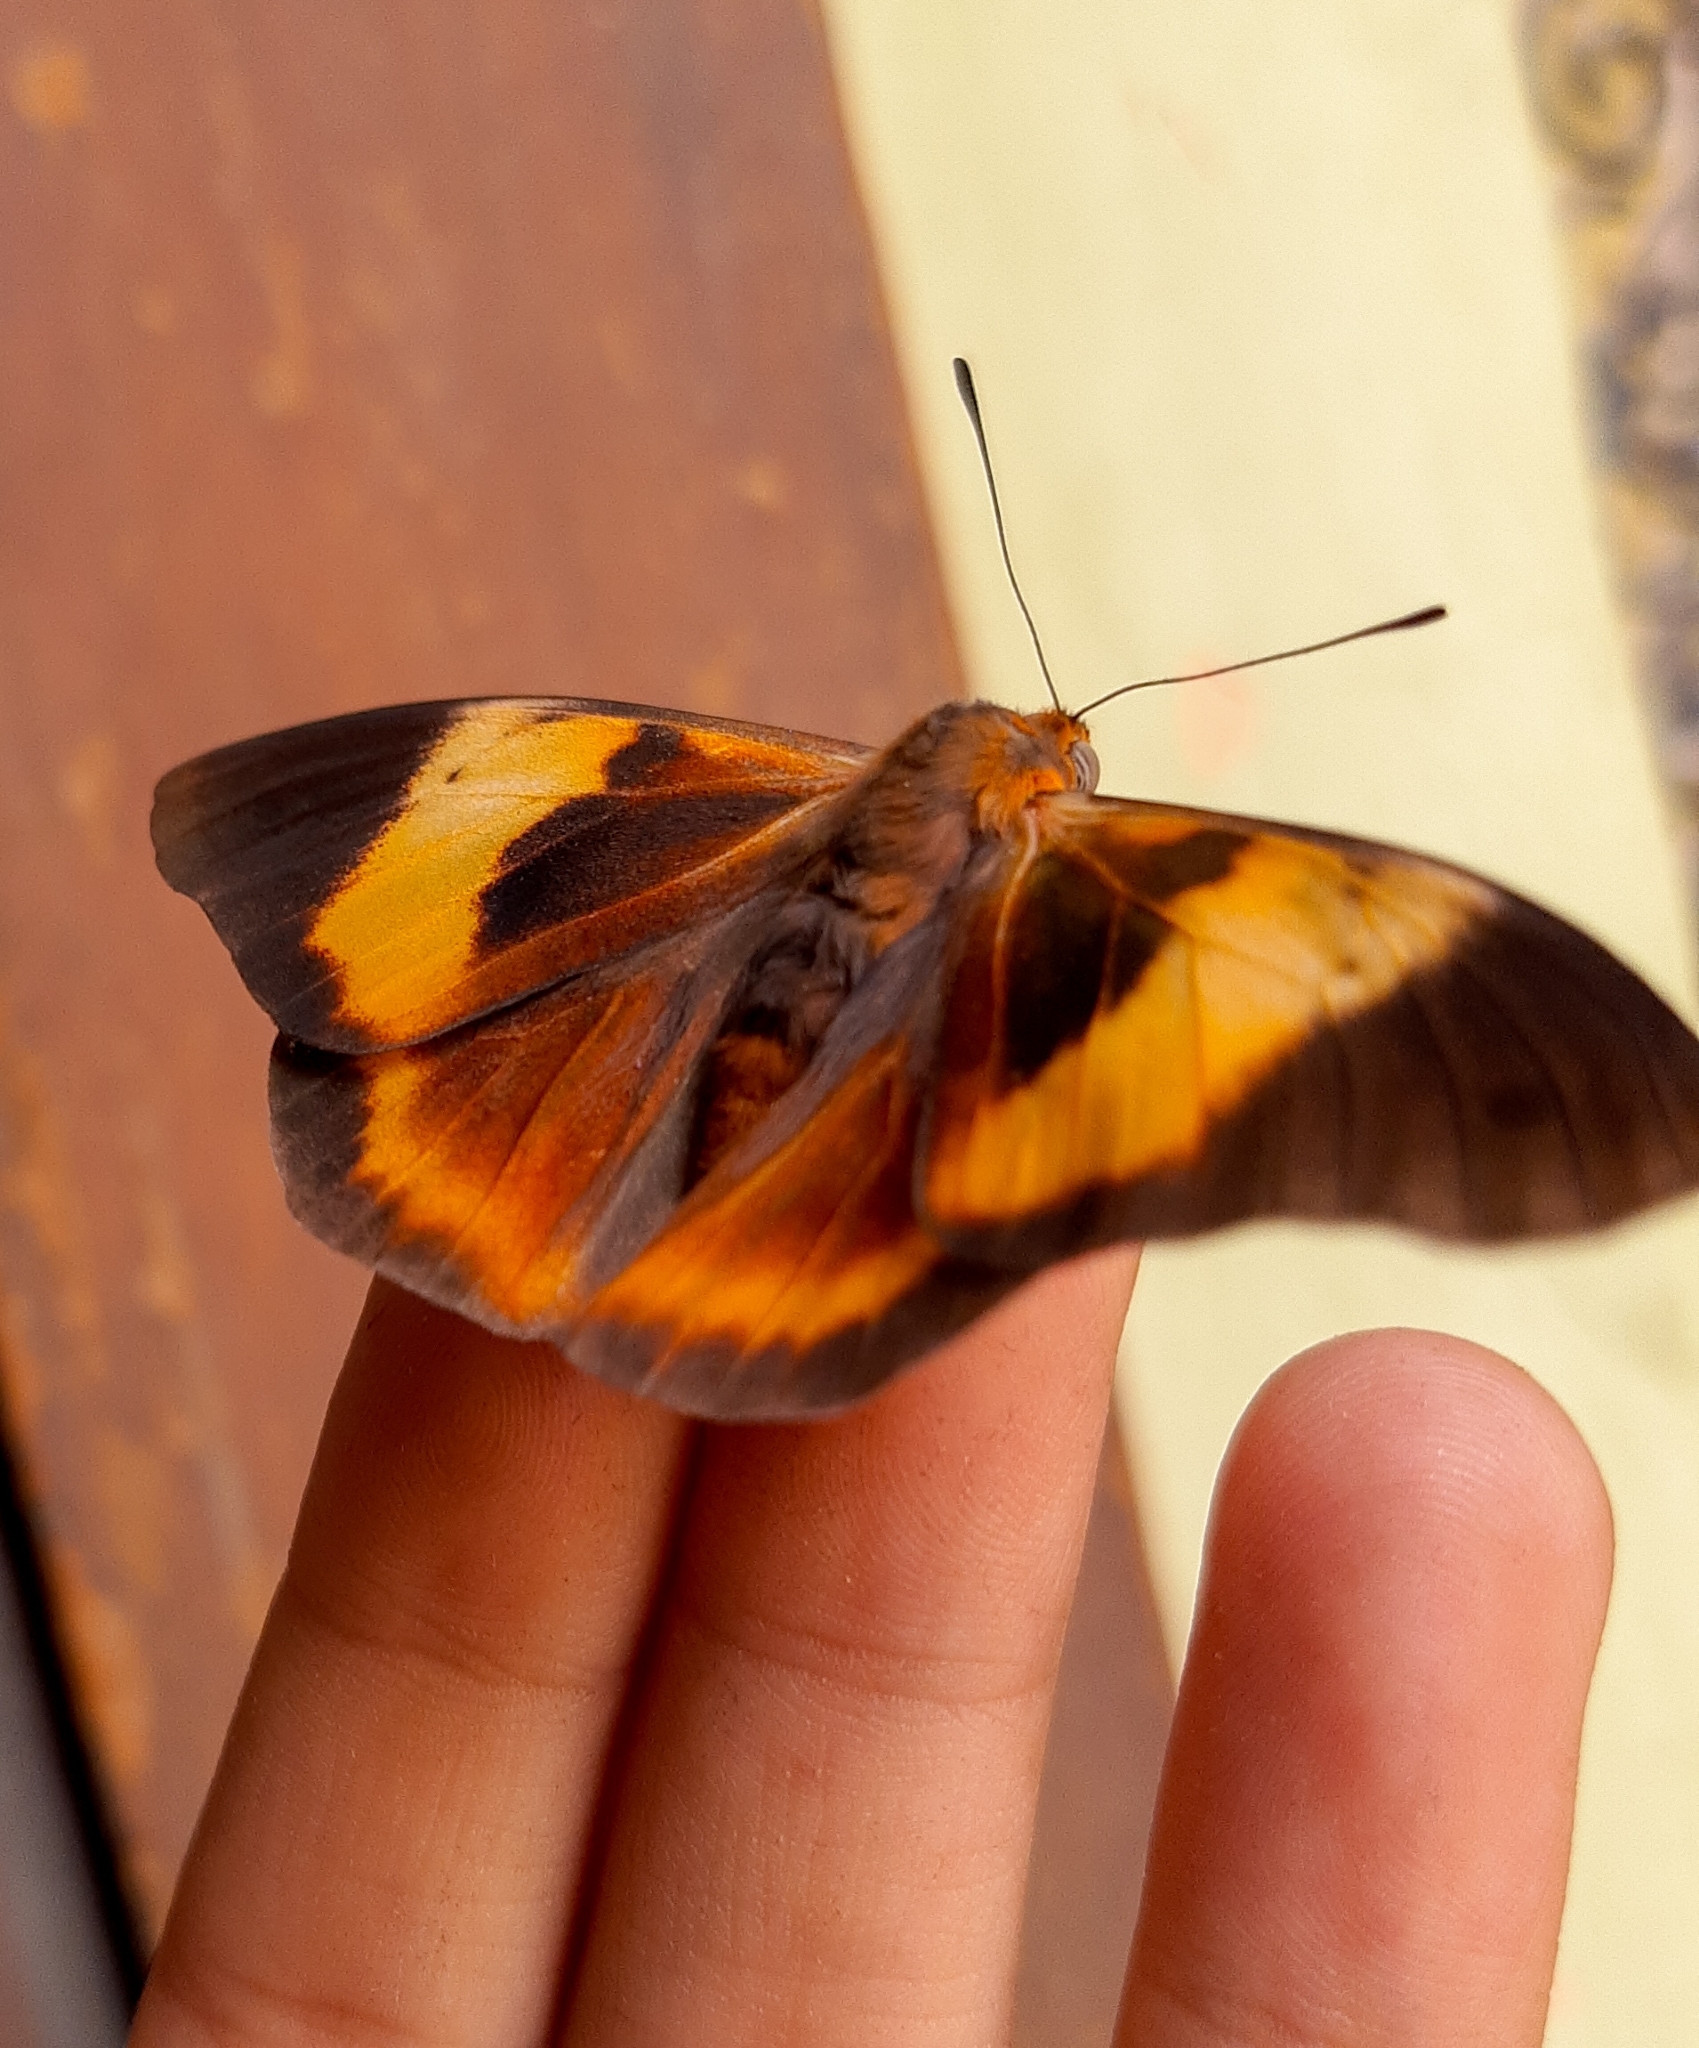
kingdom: Animalia
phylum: Arthropoda
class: Insecta
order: Lepidoptera
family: Nymphalidae
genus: Brassolis
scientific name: Brassolis sophorae
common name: Coconut caterpillar
